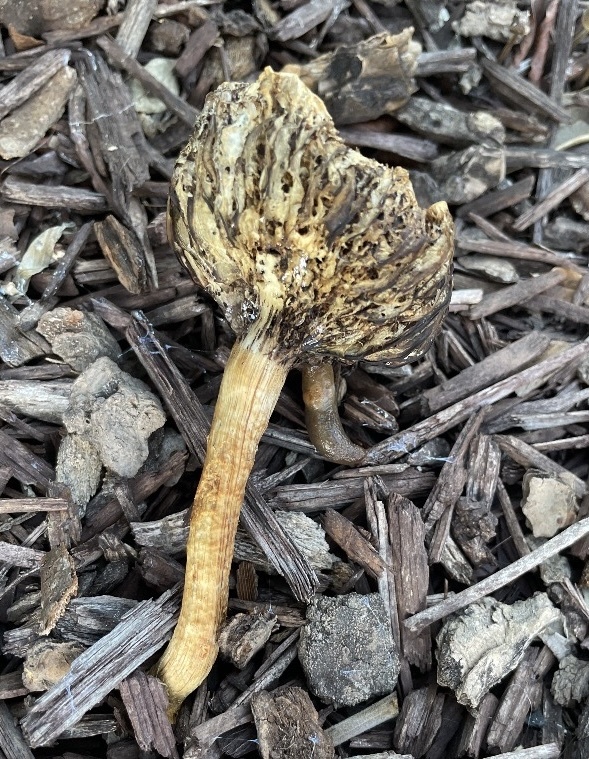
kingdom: Fungi
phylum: Basidiomycota
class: Agaricomycetes
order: Agaricales
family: Strophariaceae
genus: Leratiomyces
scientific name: Leratiomyces percevalii
